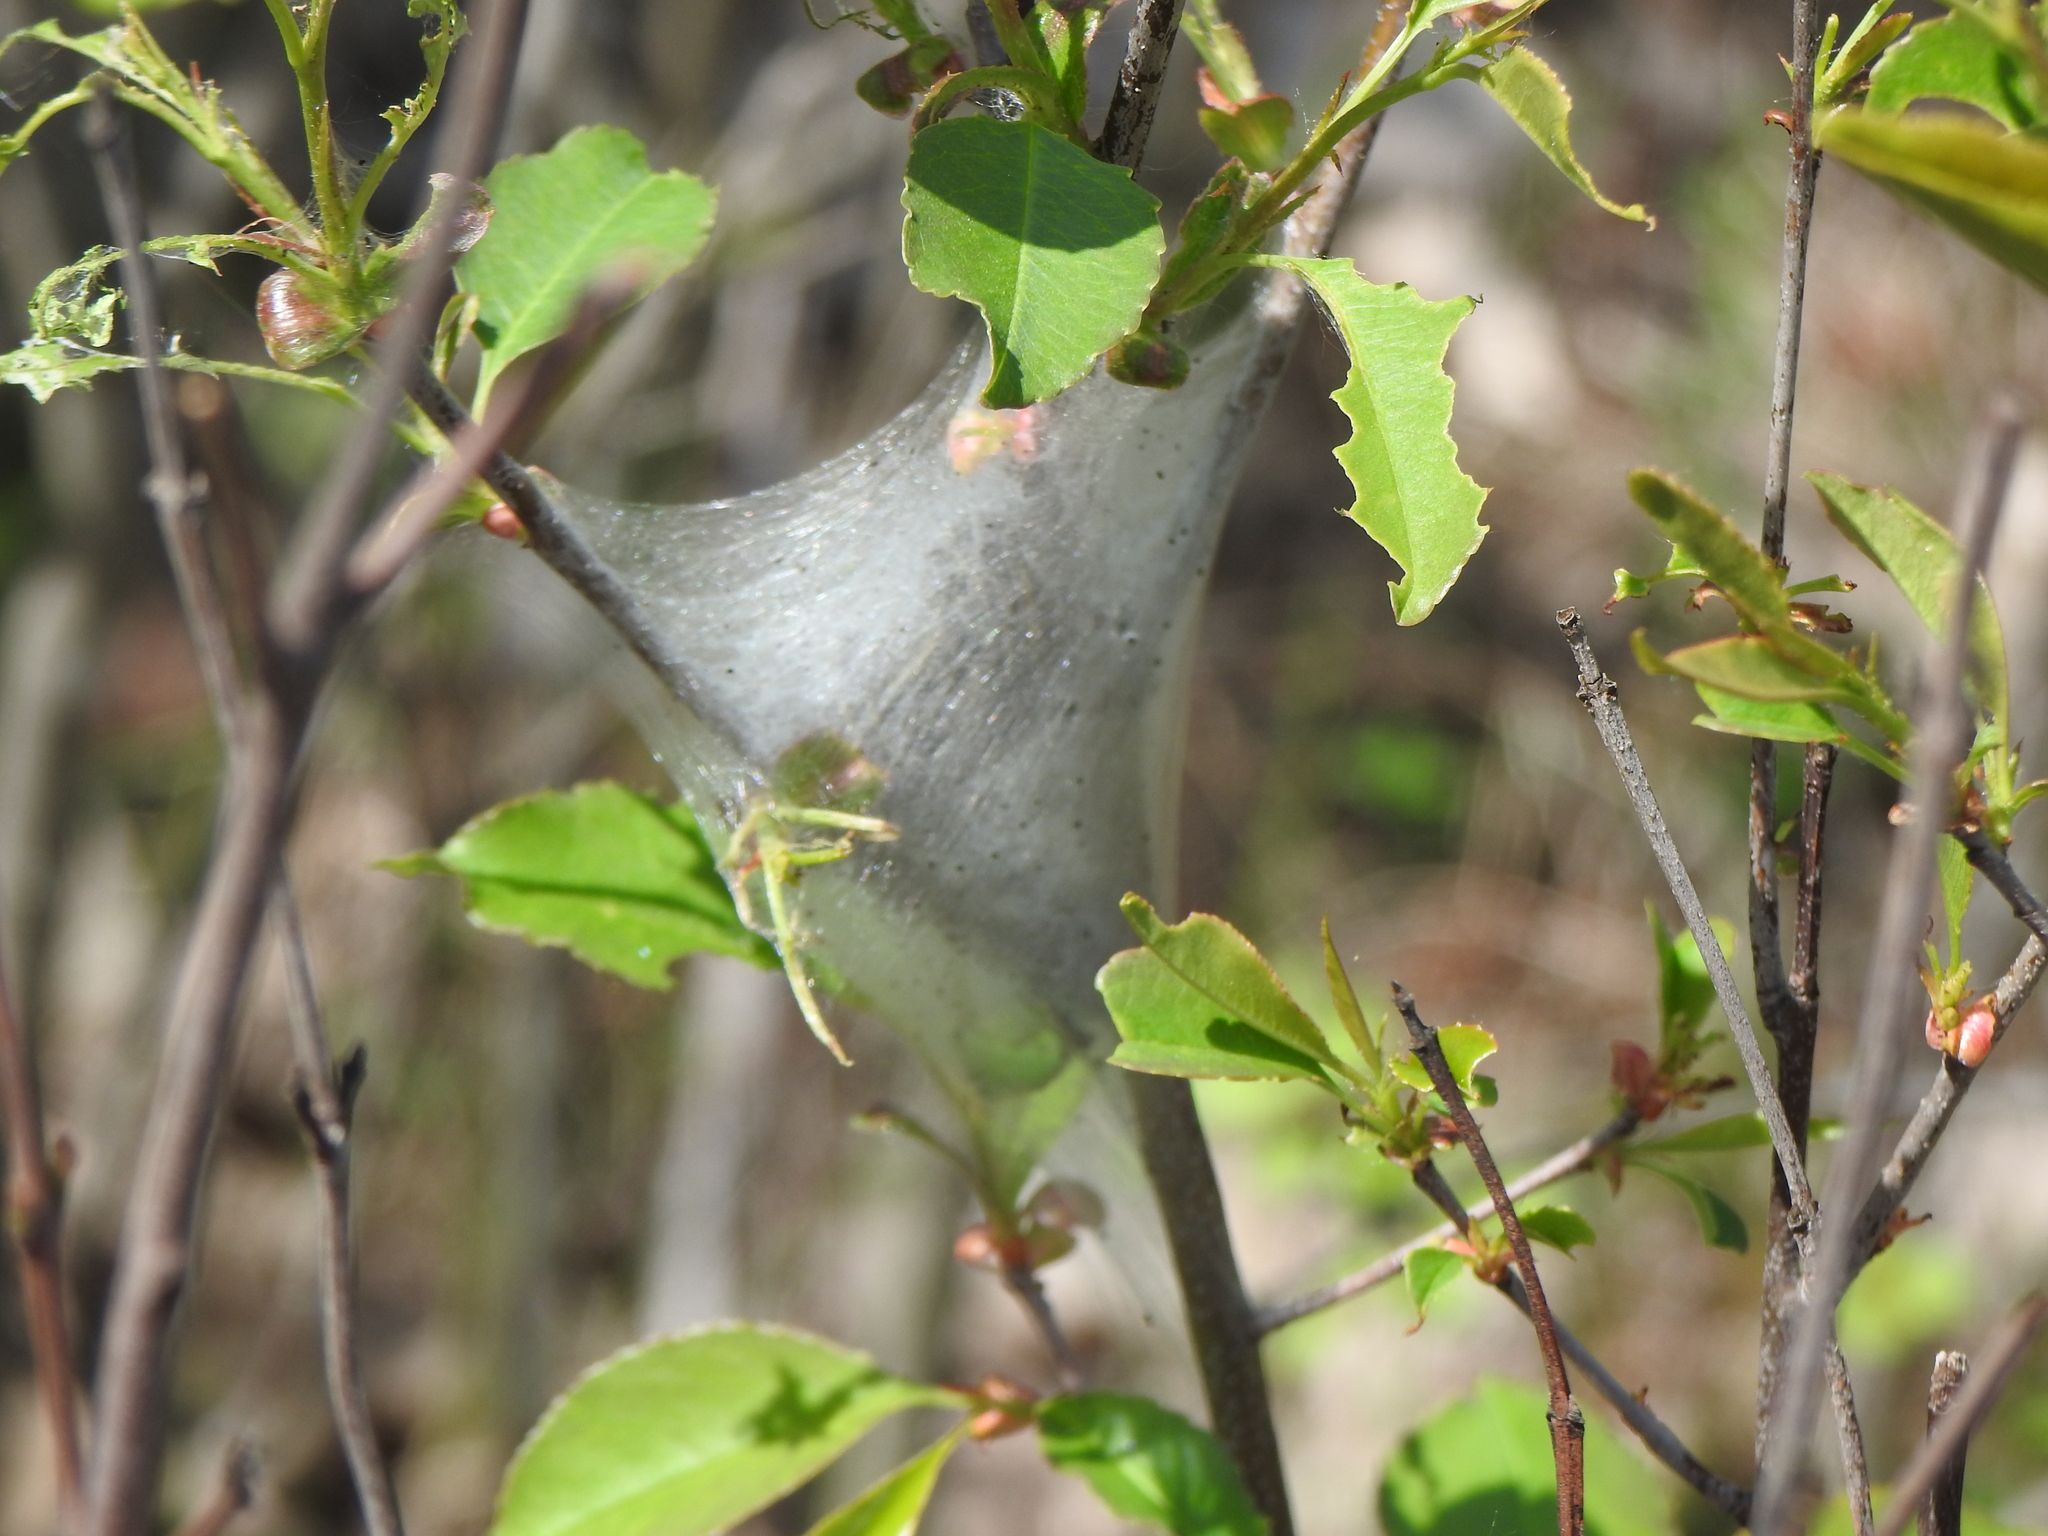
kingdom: Animalia
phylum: Arthropoda
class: Insecta
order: Lepidoptera
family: Lasiocampidae
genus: Malacosoma
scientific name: Malacosoma americana
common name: Eastern tent caterpillar moth
